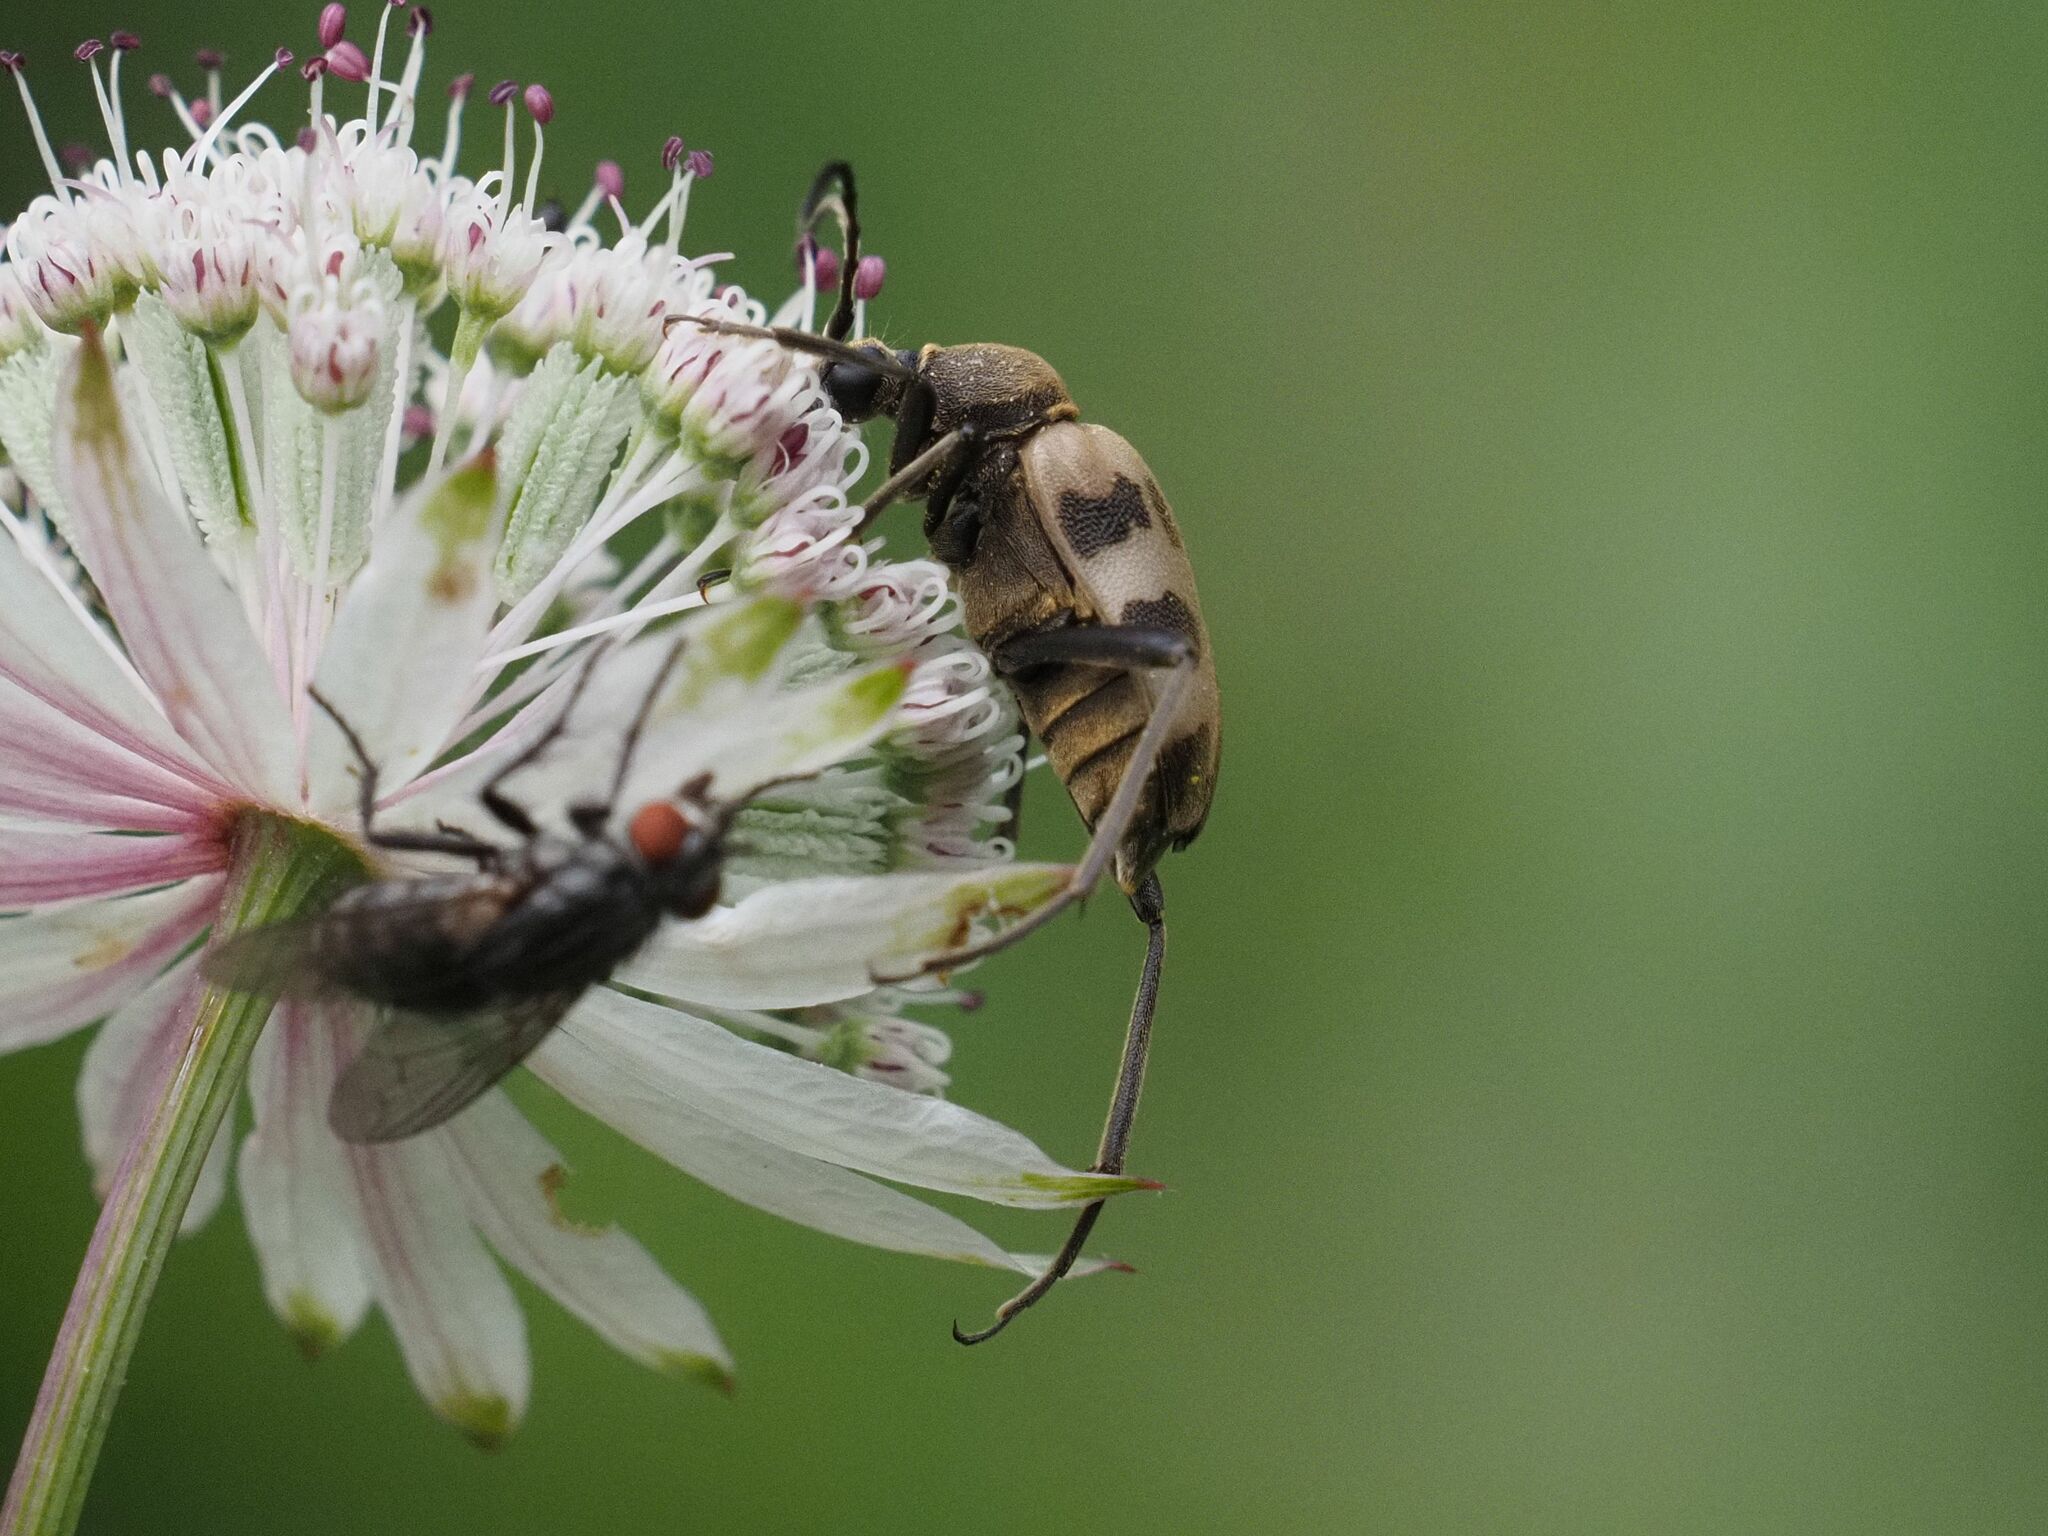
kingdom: Animalia
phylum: Arthropoda
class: Insecta
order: Coleoptera
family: Cerambycidae
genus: Pachytodes
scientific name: Pachytodes cerambyciformis
